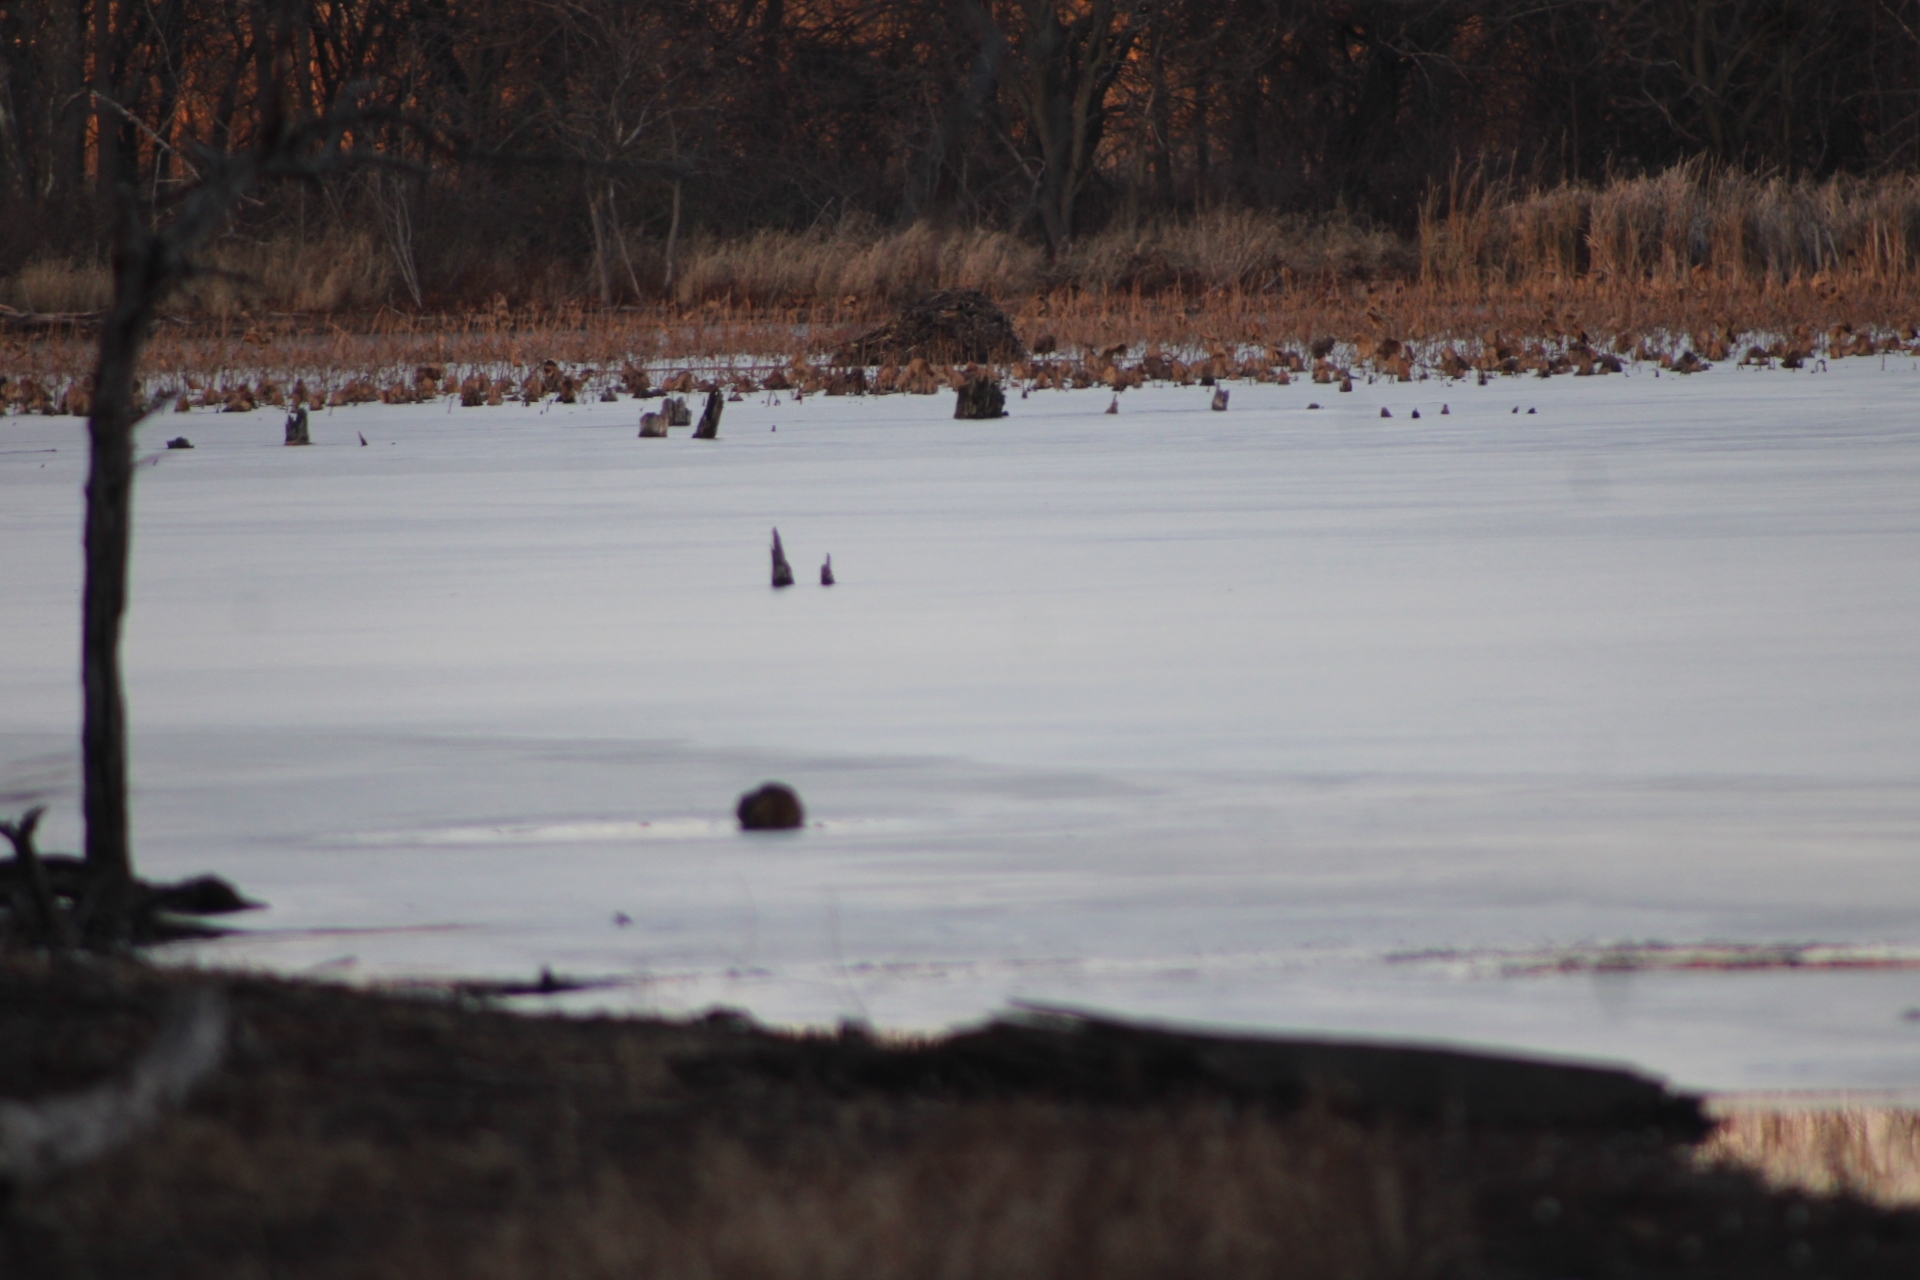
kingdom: Animalia
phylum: Chordata
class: Mammalia
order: Rodentia
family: Cricetidae
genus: Ondatra
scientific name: Ondatra zibethicus
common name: Muskrat
